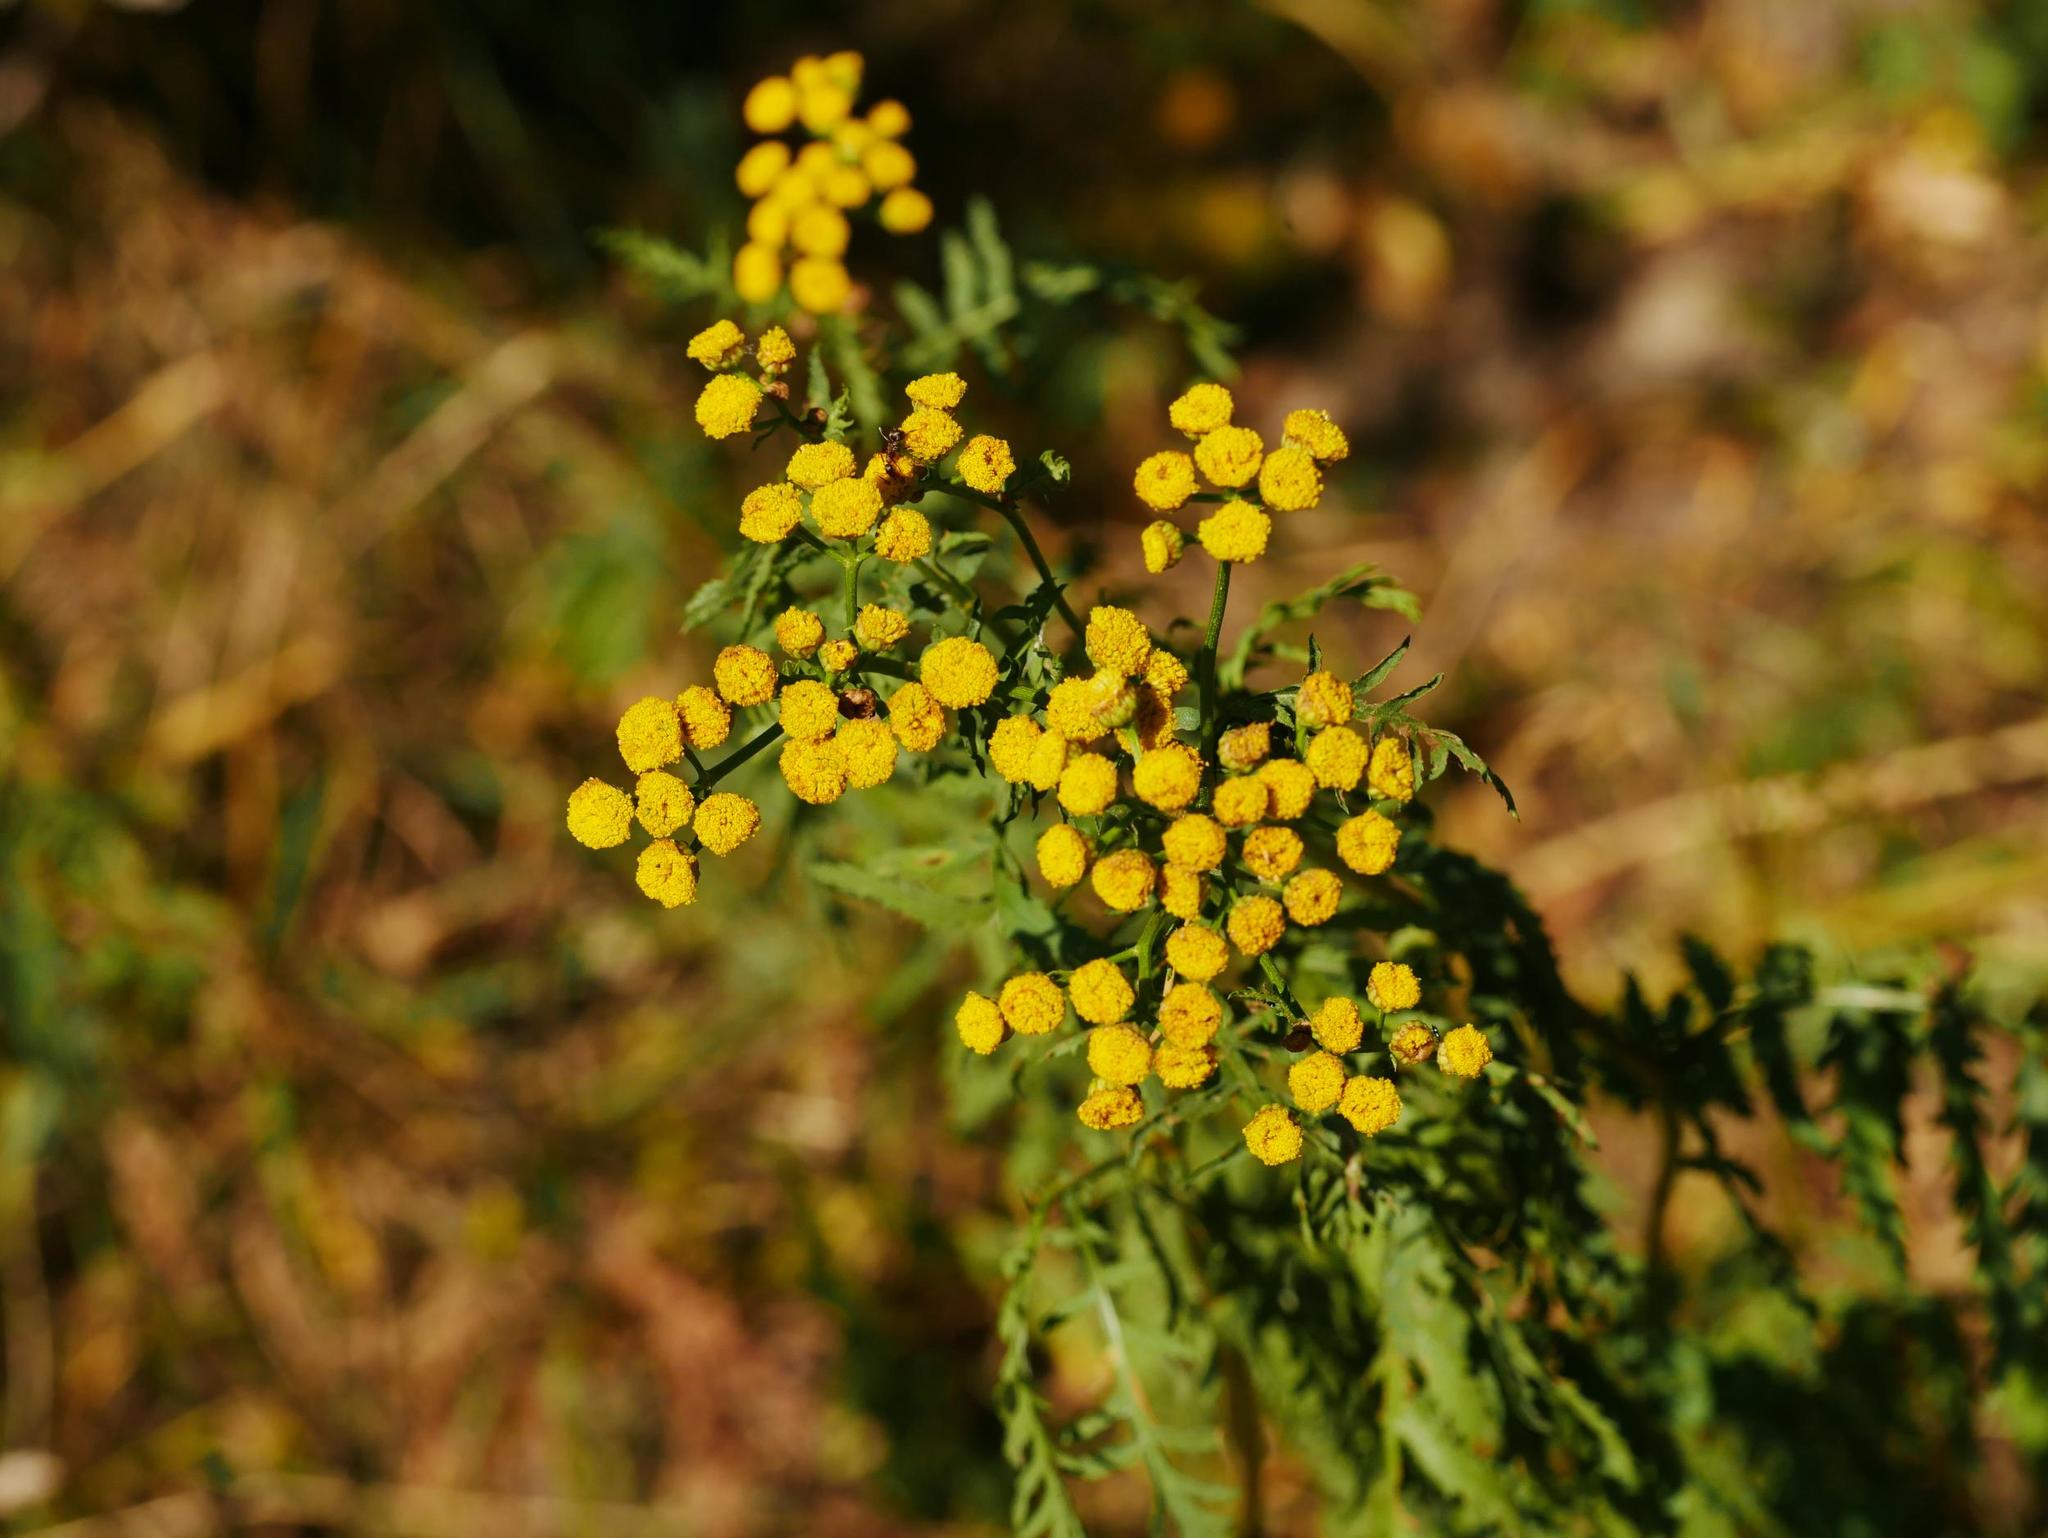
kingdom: Plantae
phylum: Tracheophyta
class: Magnoliopsida
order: Asterales
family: Asteraceae
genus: Tanacetum
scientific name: Tanacetum vulgare
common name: Common tansy
